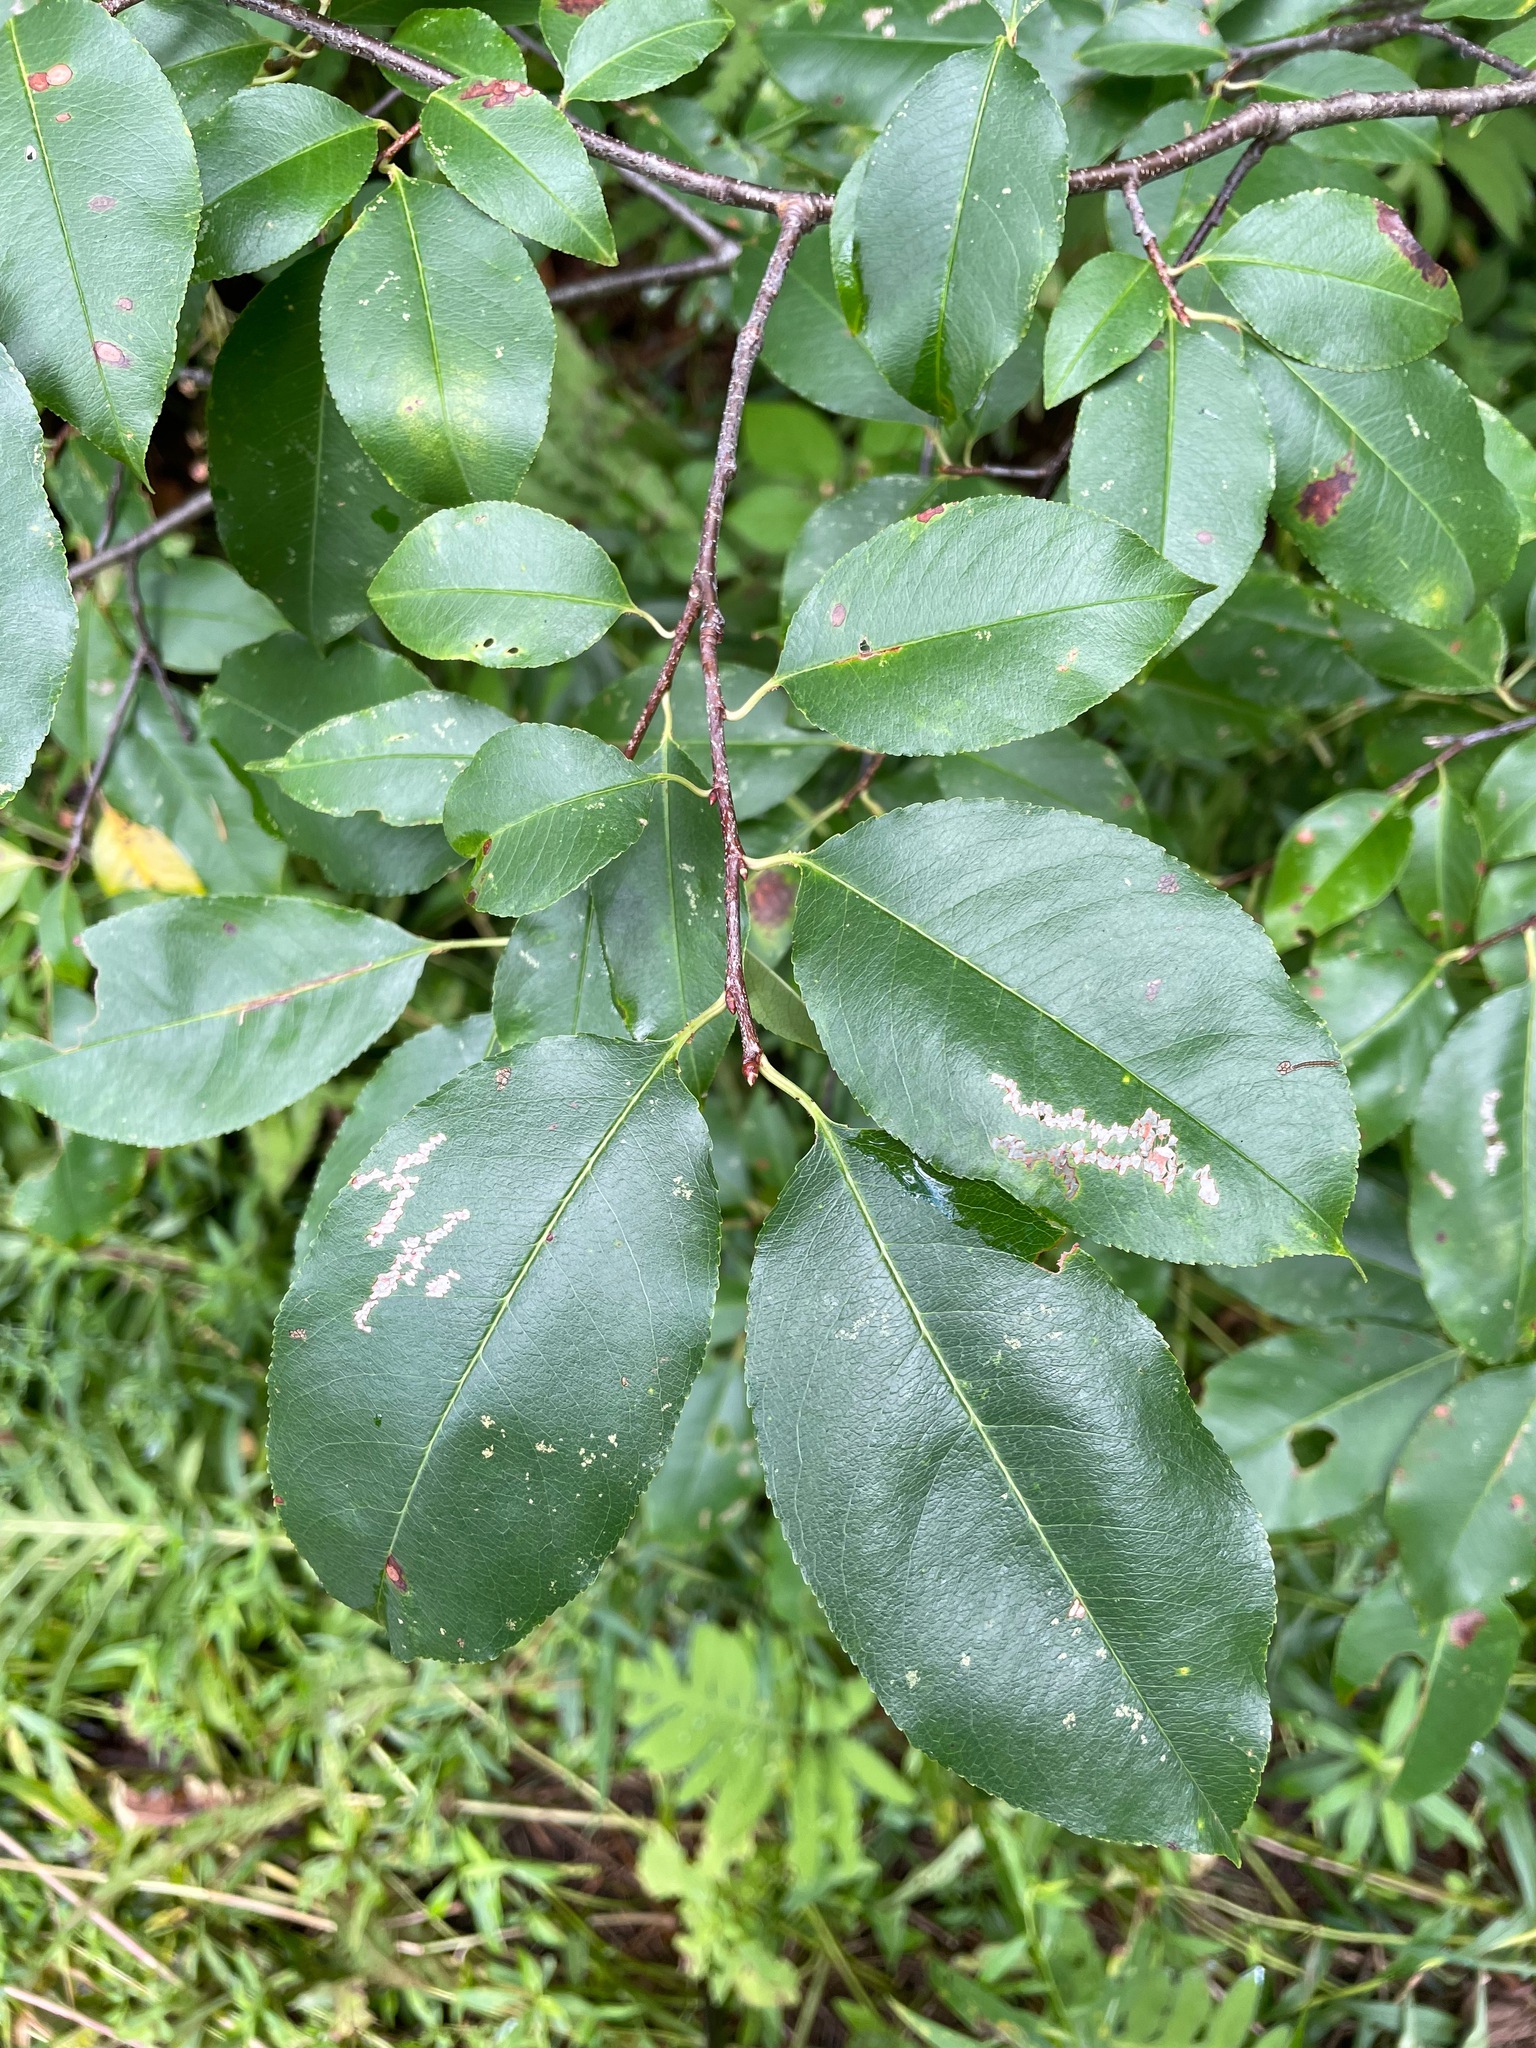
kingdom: Plantae
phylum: Tracheophyta
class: Magnoliopsida
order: Rosales
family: Rosaceae
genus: Prunus
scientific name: Prunus serotina
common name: Black cherry
